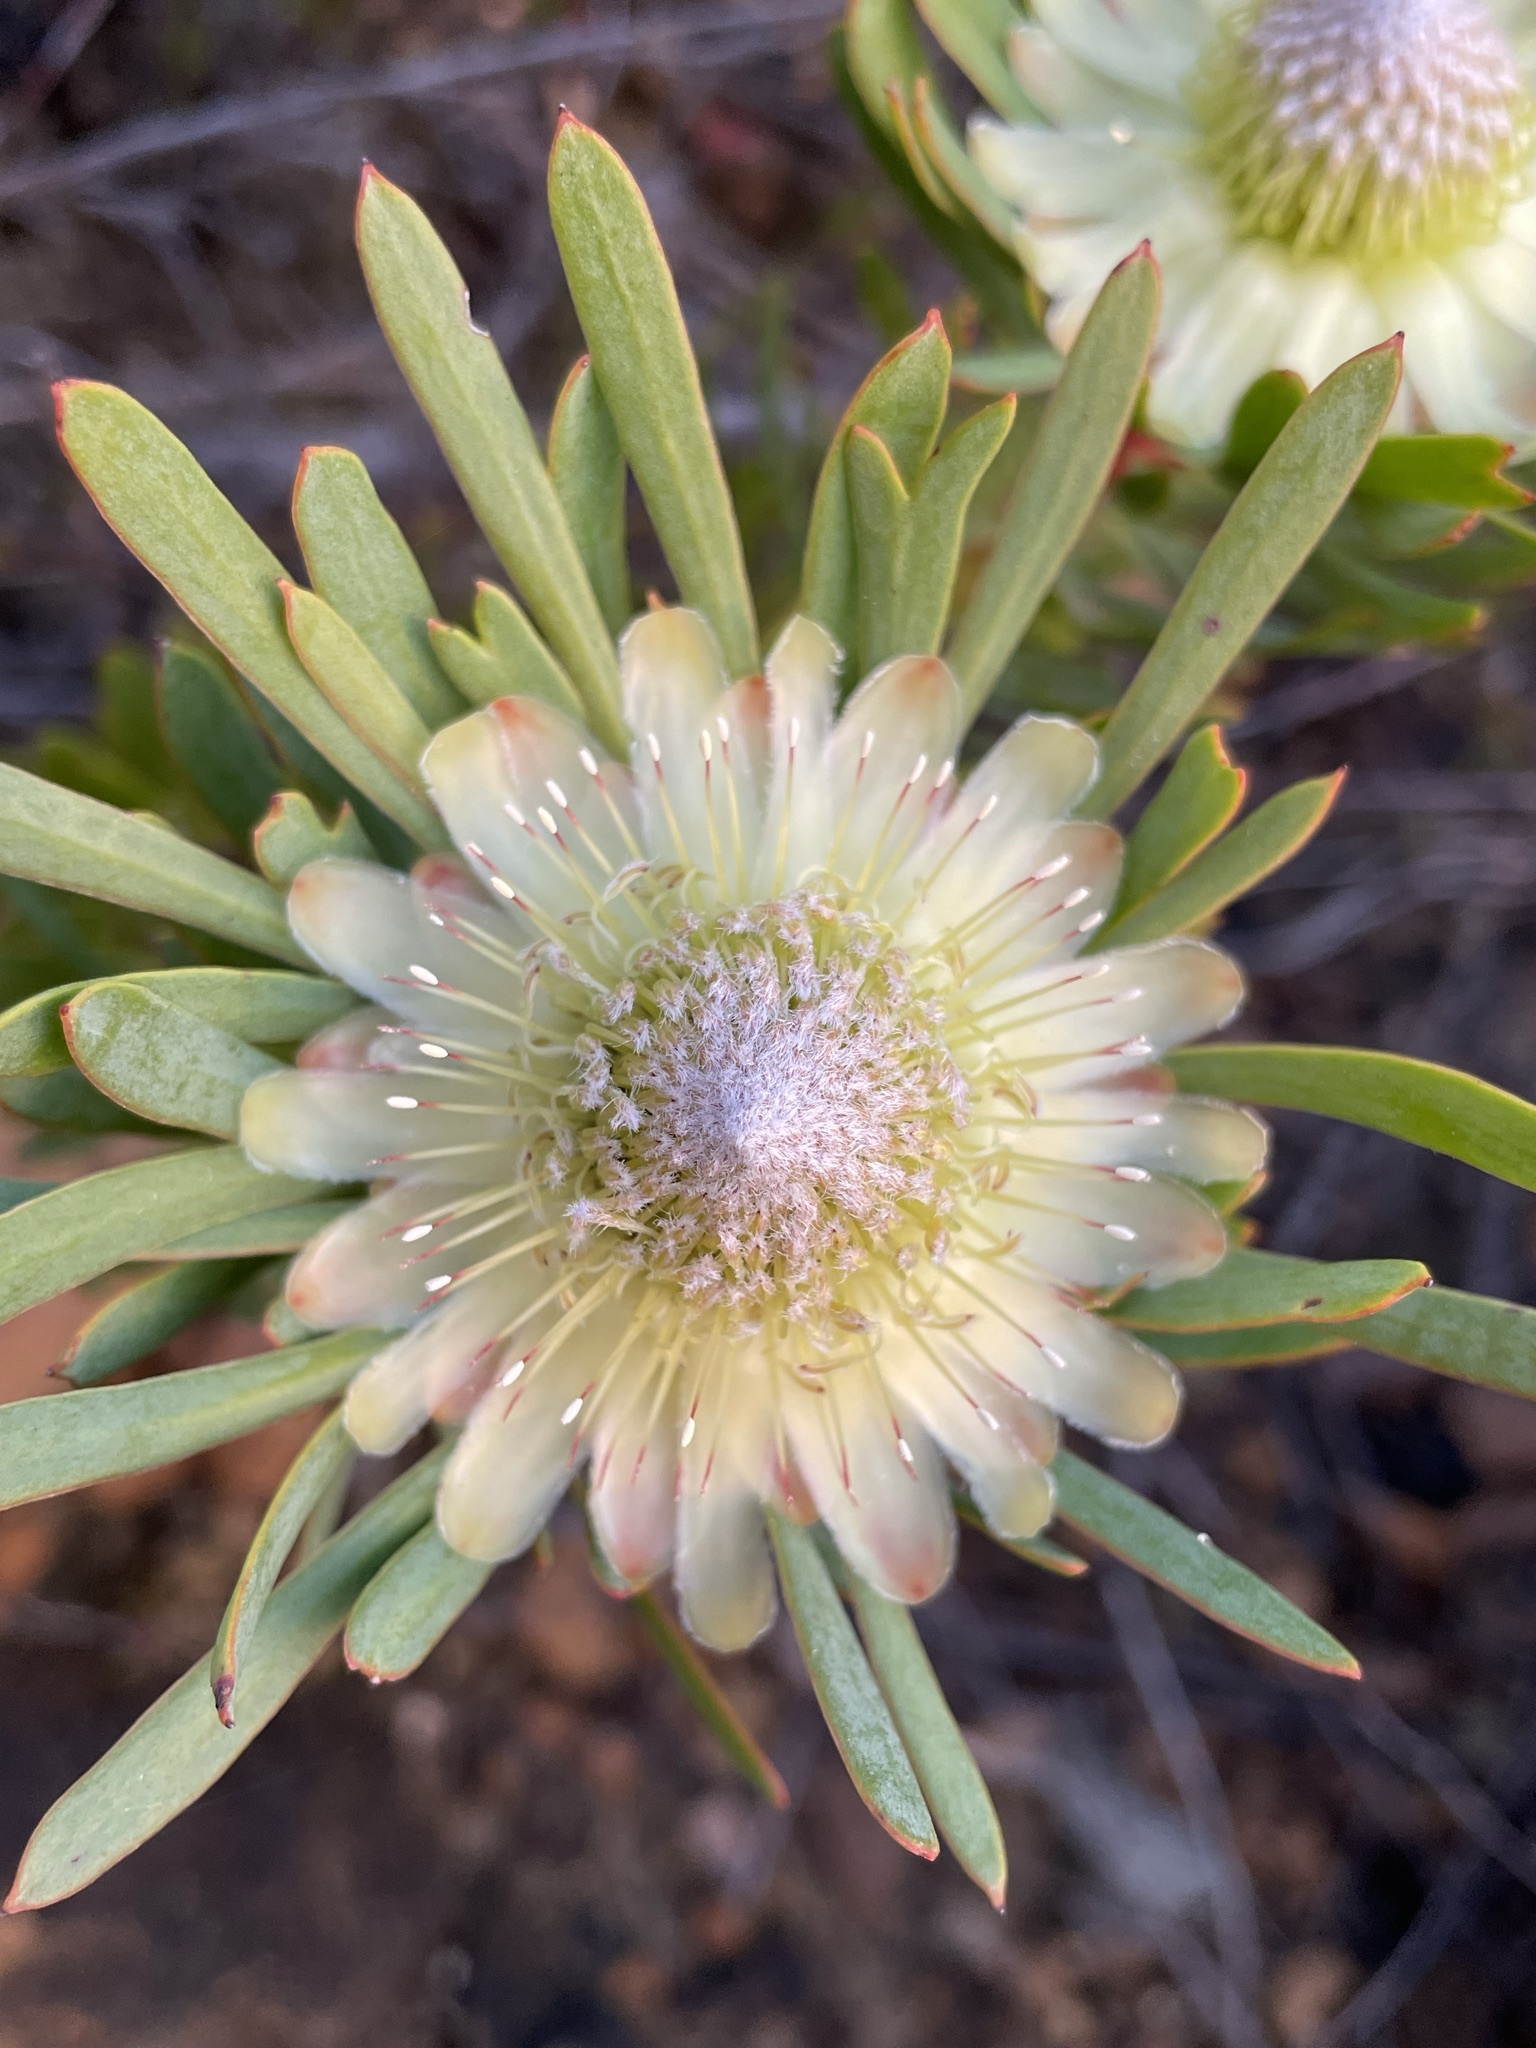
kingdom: Plantae
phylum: Tracheophyta
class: Magnoliopsida
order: Proteales
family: Proteaceae
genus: Protea
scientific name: Protea scolymocephala
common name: Thistle sugarbush
